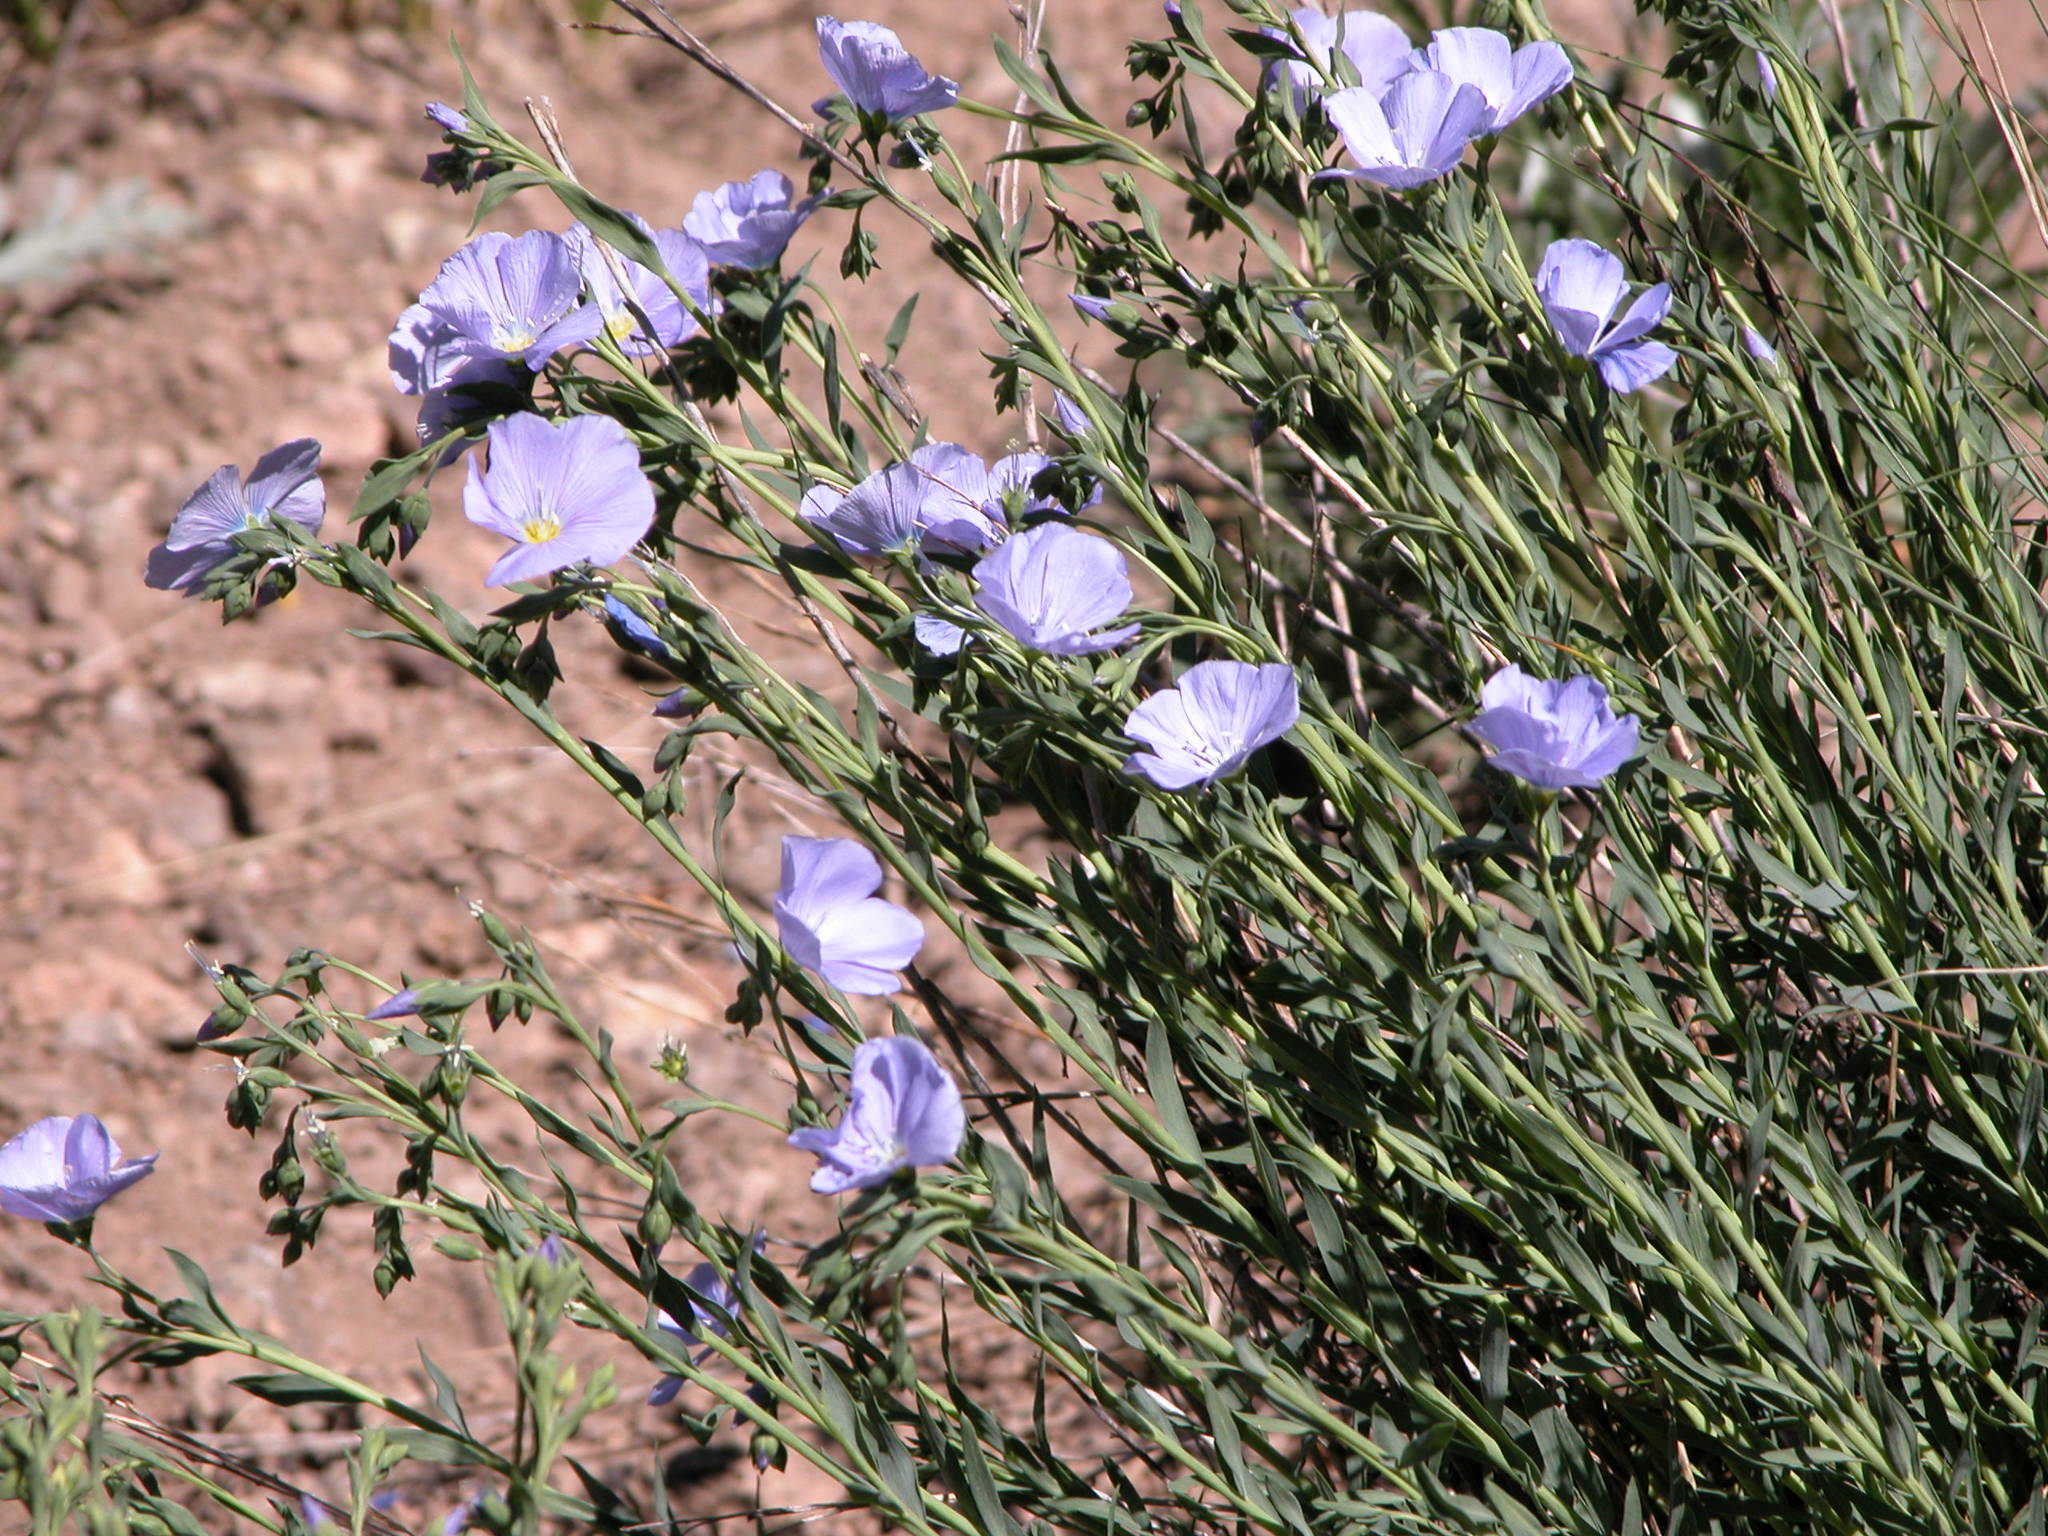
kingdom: Plantae
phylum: Tracheophyta
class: Magnoliopsida
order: Malpighiales
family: Linaceae
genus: Linum
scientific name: Linum lewisii
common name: Prairie flax
